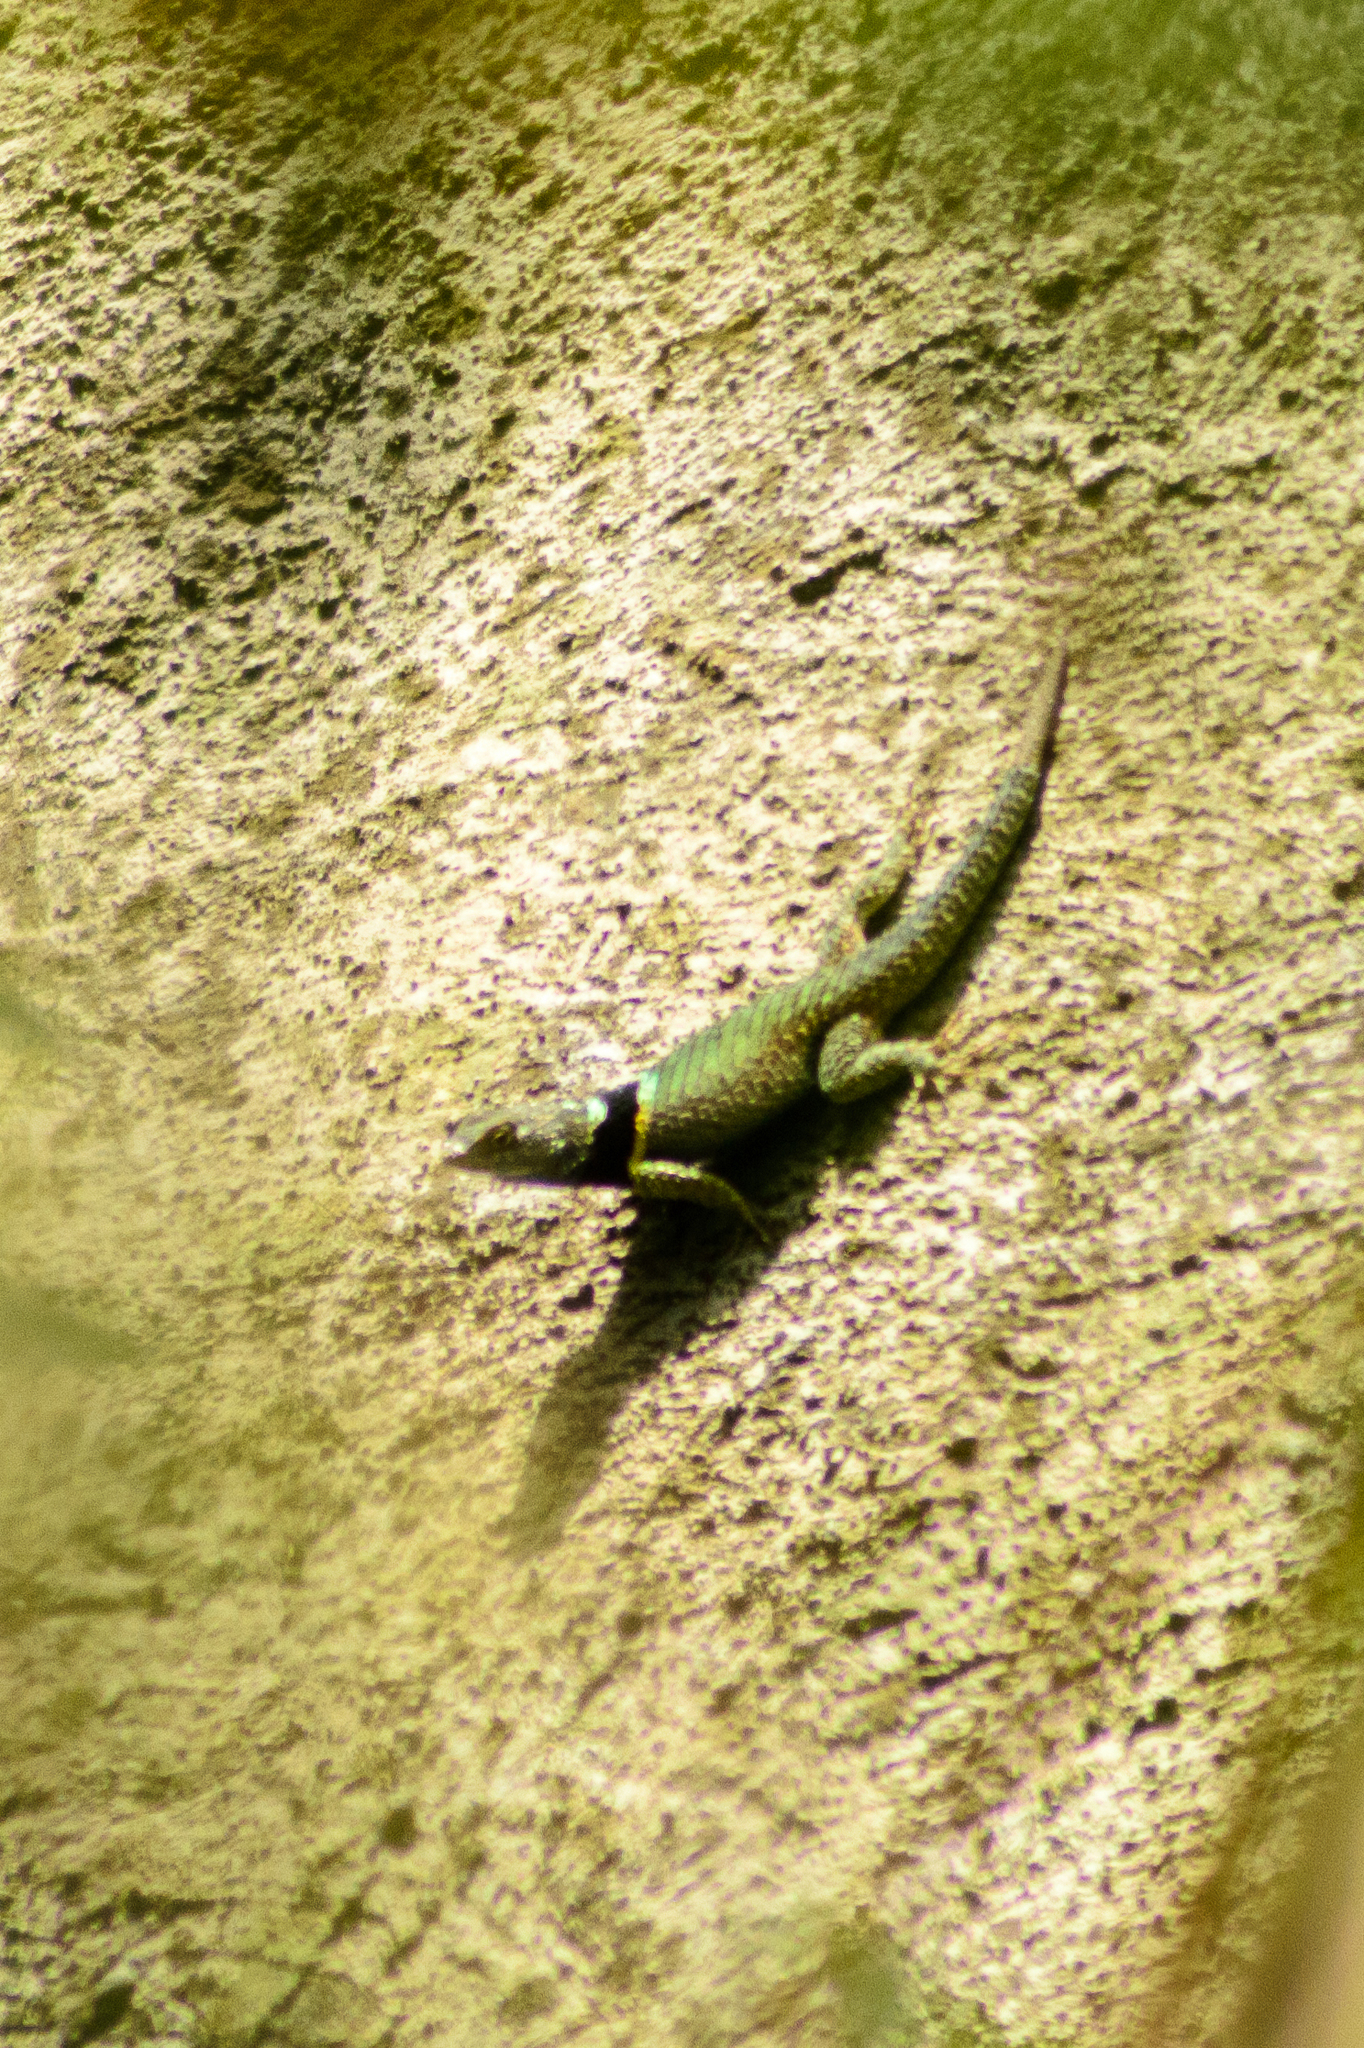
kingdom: Animalia
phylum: Chordata
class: Squamata
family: Phrynosomatidae
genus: Sceloporus
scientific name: Sceloporus torquatus
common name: Central plateau torquate lizard [melanogaster]
